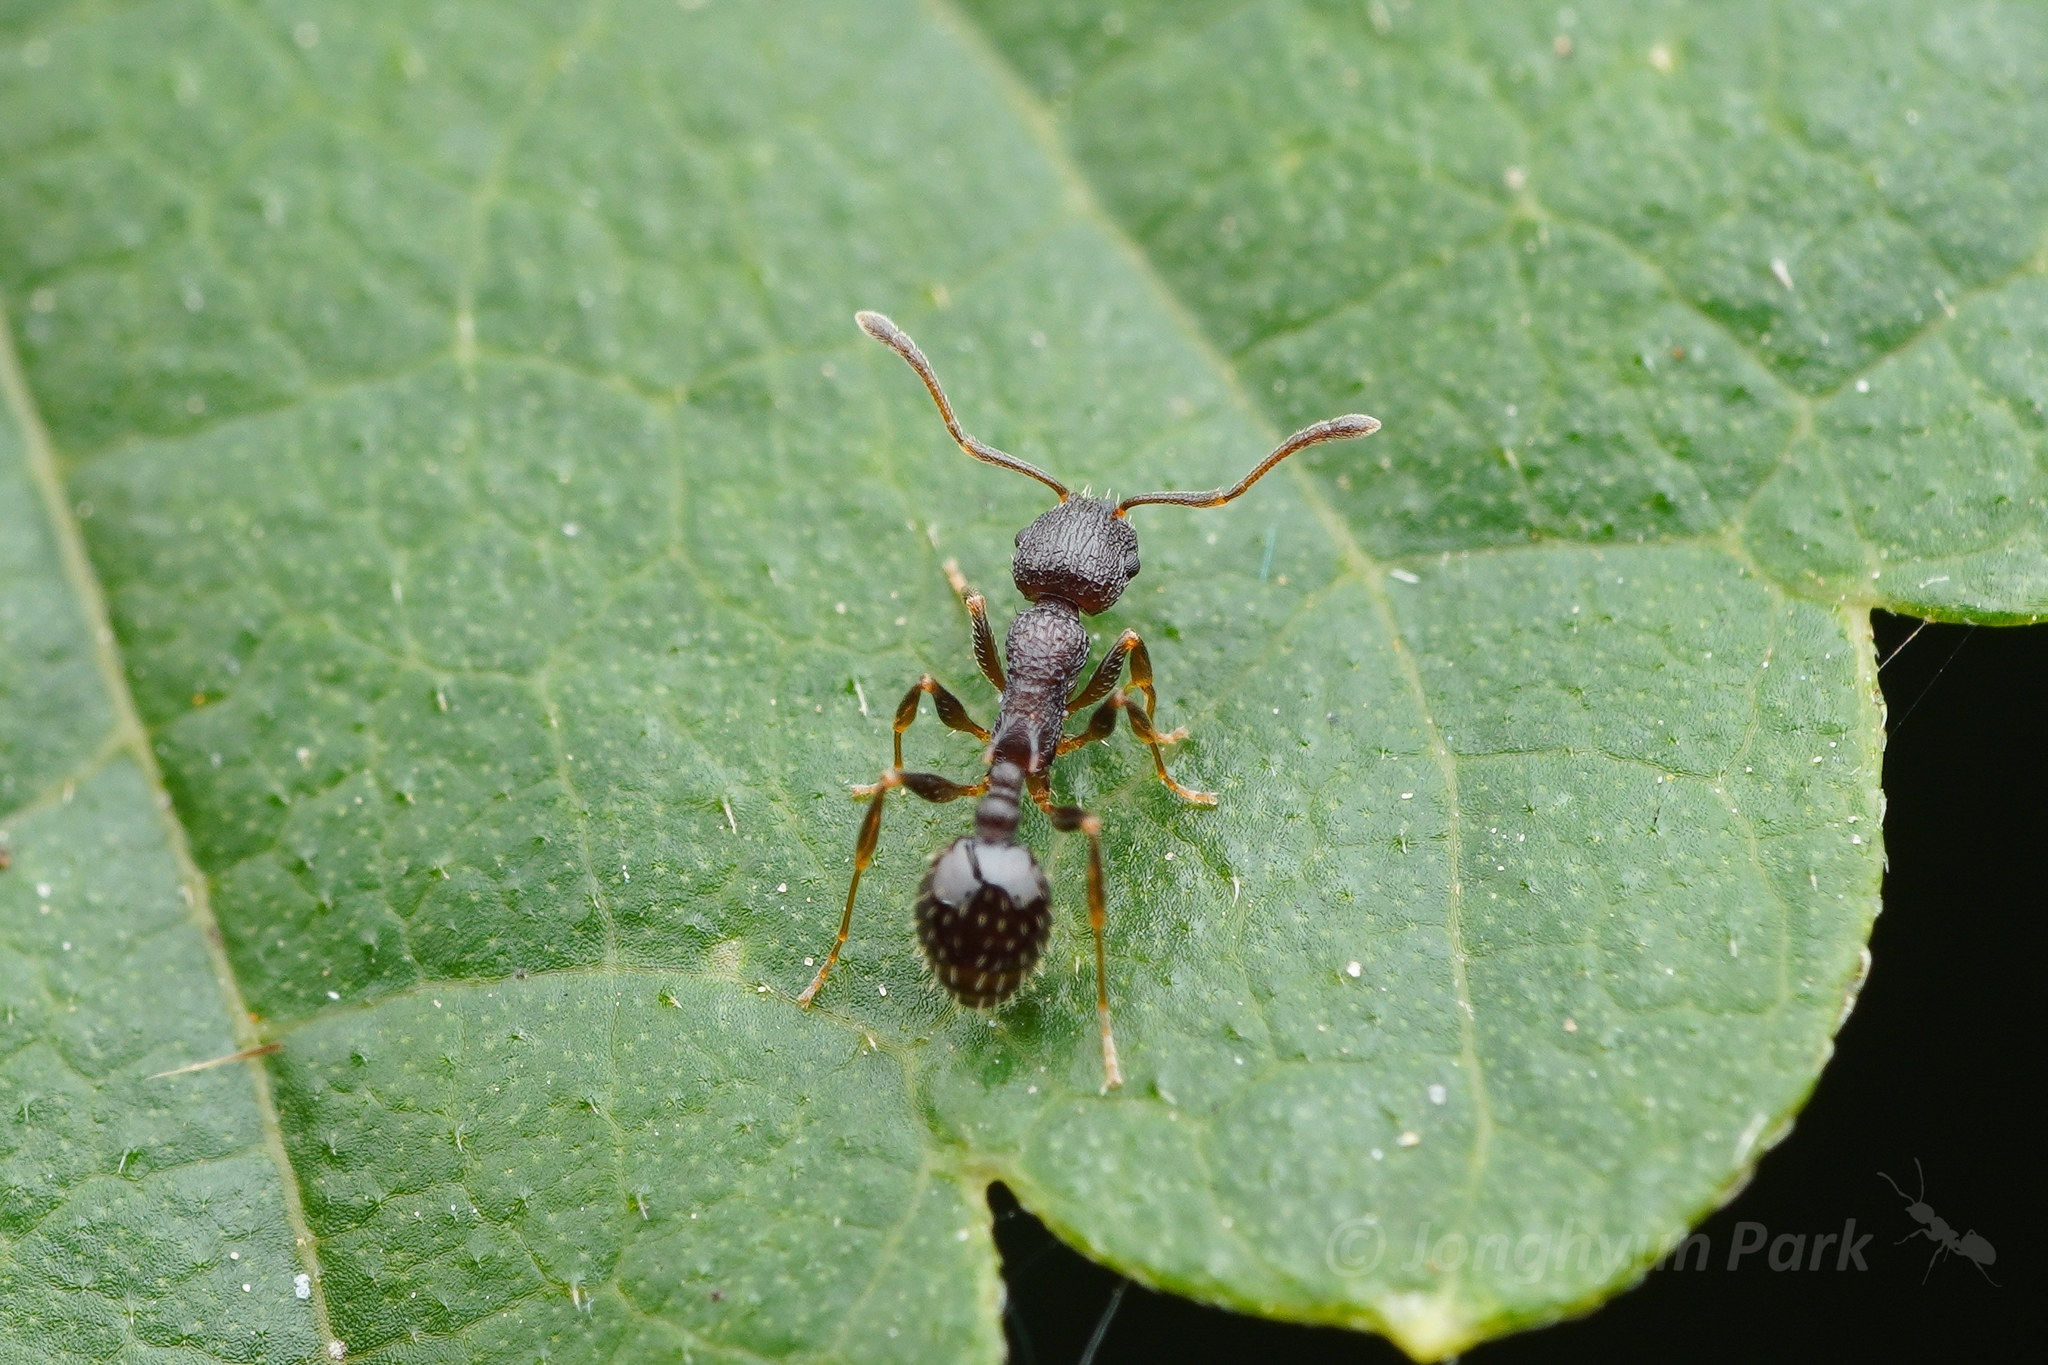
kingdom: Animalia
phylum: Arthropoda
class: Insecta
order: Hymenoptera
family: Formicidae
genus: Temnothorax
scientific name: Temnothorax
